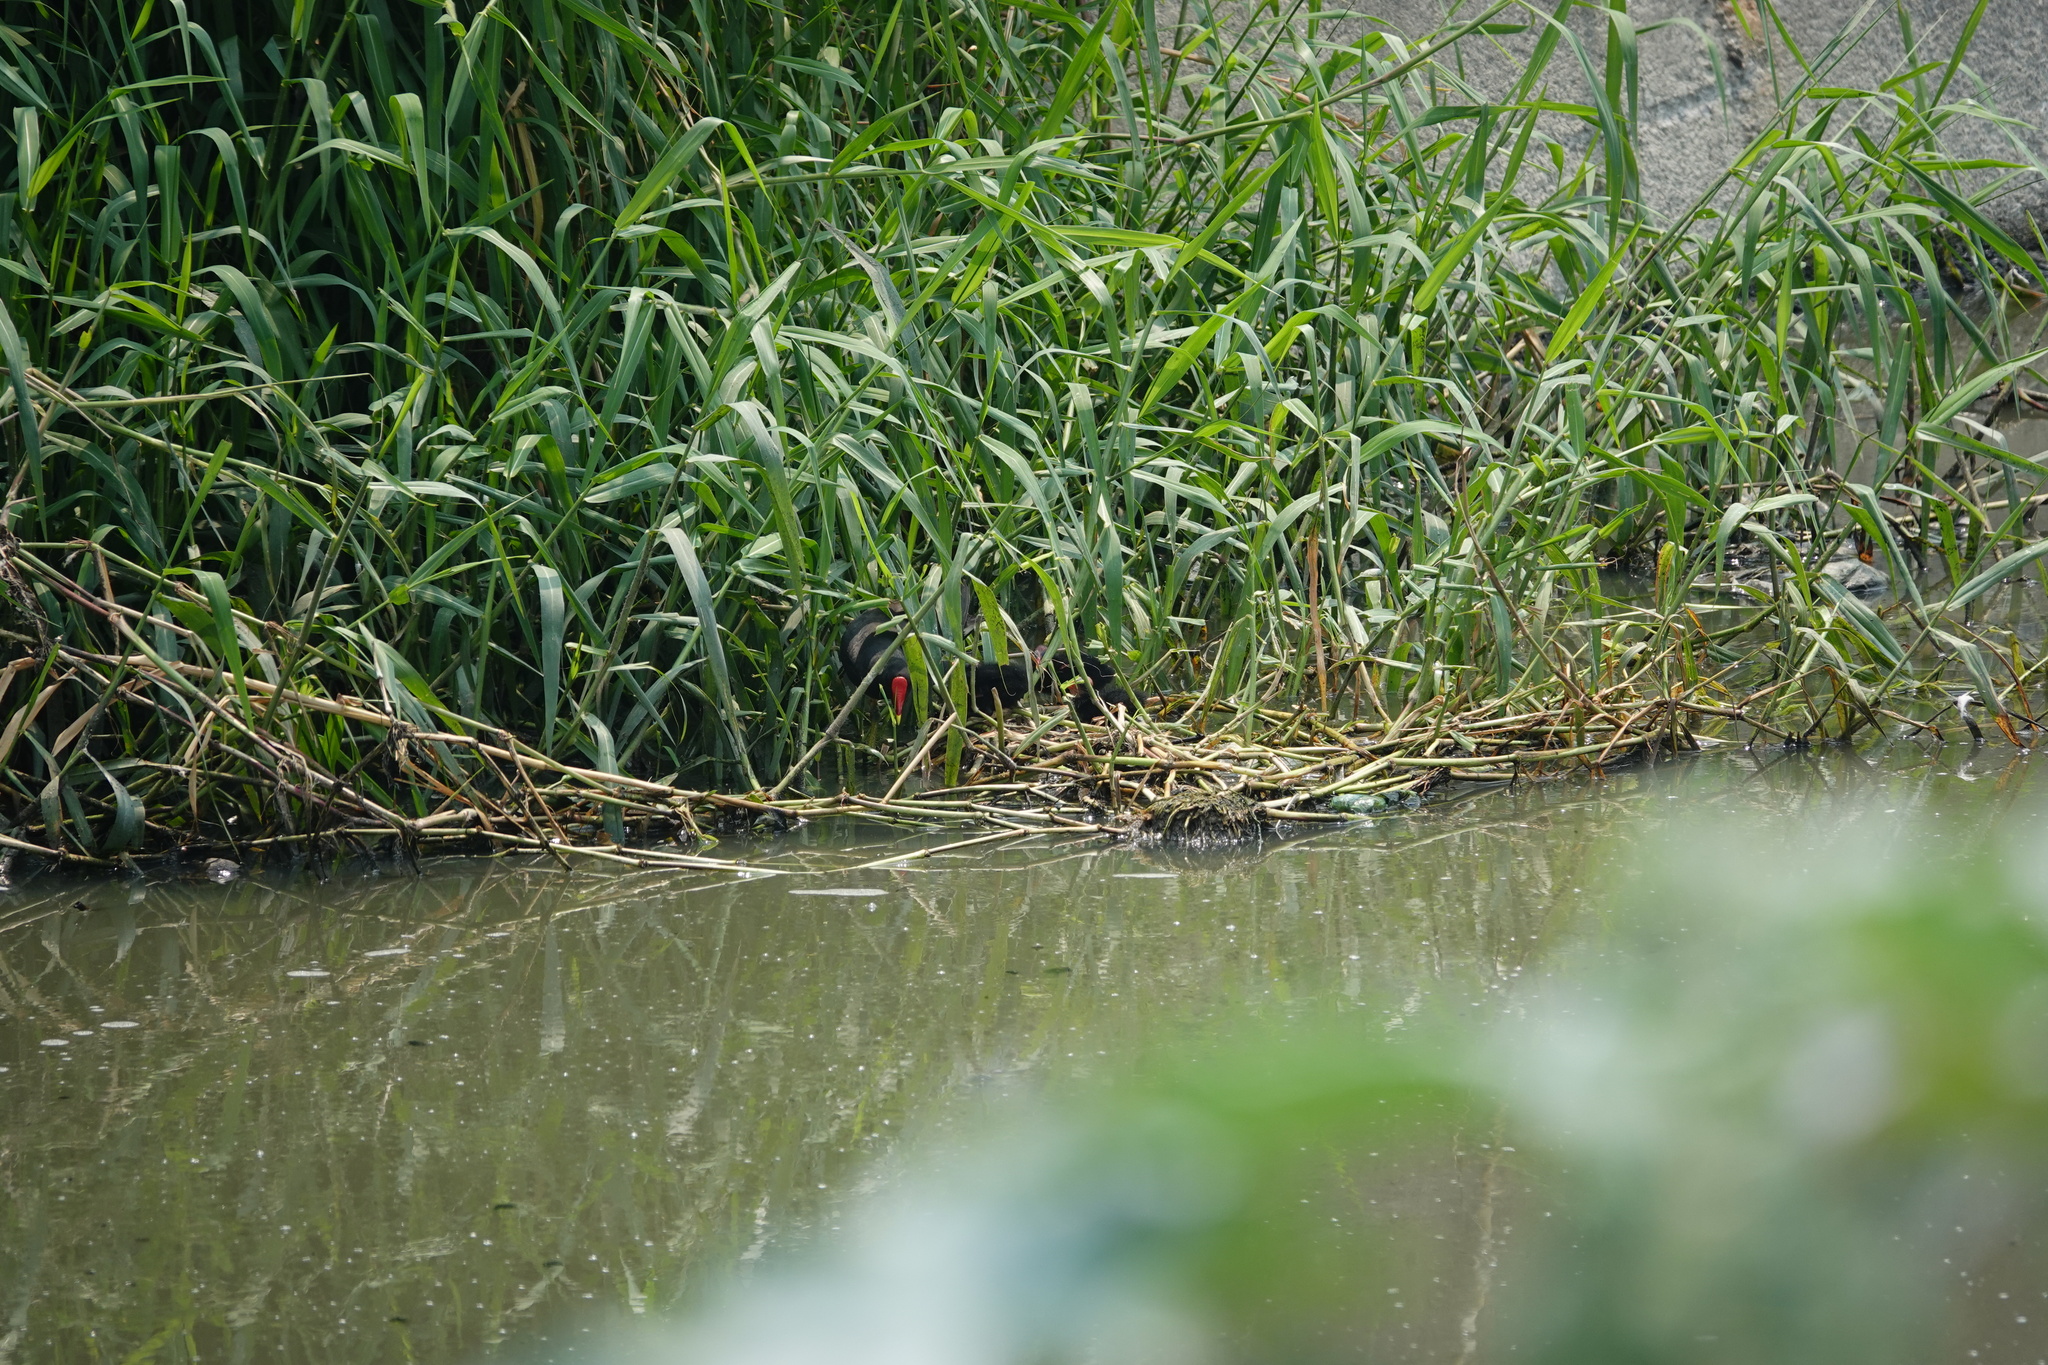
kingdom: Animalia
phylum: Chordata
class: Aves
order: Gruiformes
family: Rallidae
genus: Gallinula
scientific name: Gallinula chloropus
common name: Common moorhen
